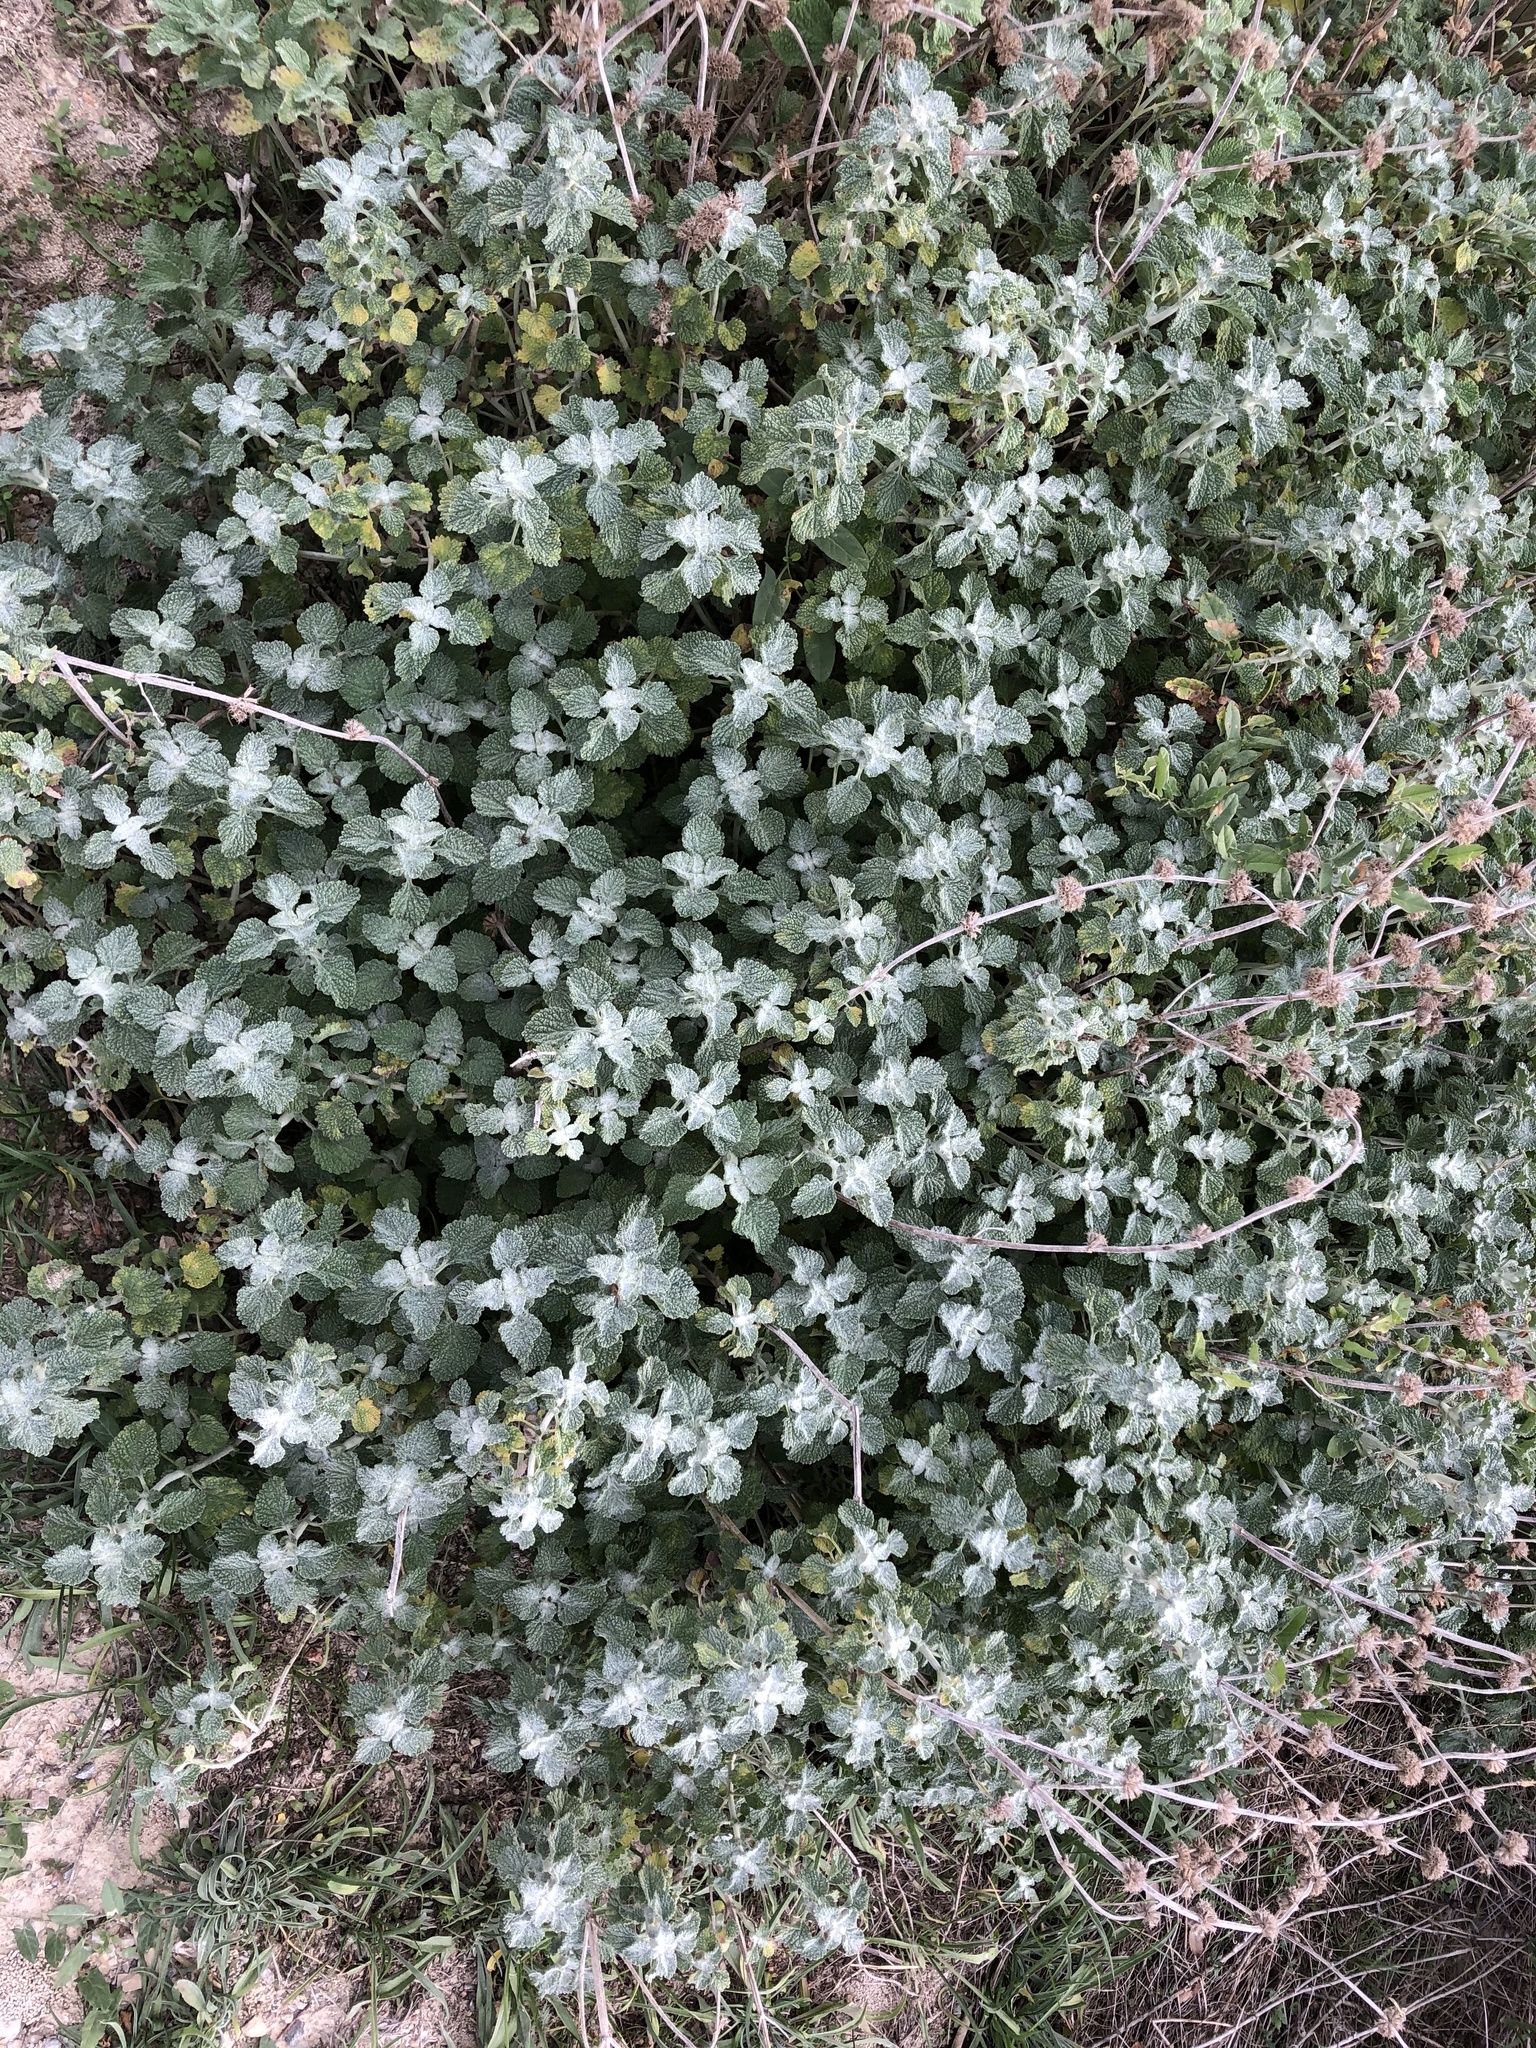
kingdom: Plantae
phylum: Tracheophyta
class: Magnoliopsida
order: Lamiales
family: Lamiaceae
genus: Marrubium
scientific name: Marrubium vulgare
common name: Horehound
